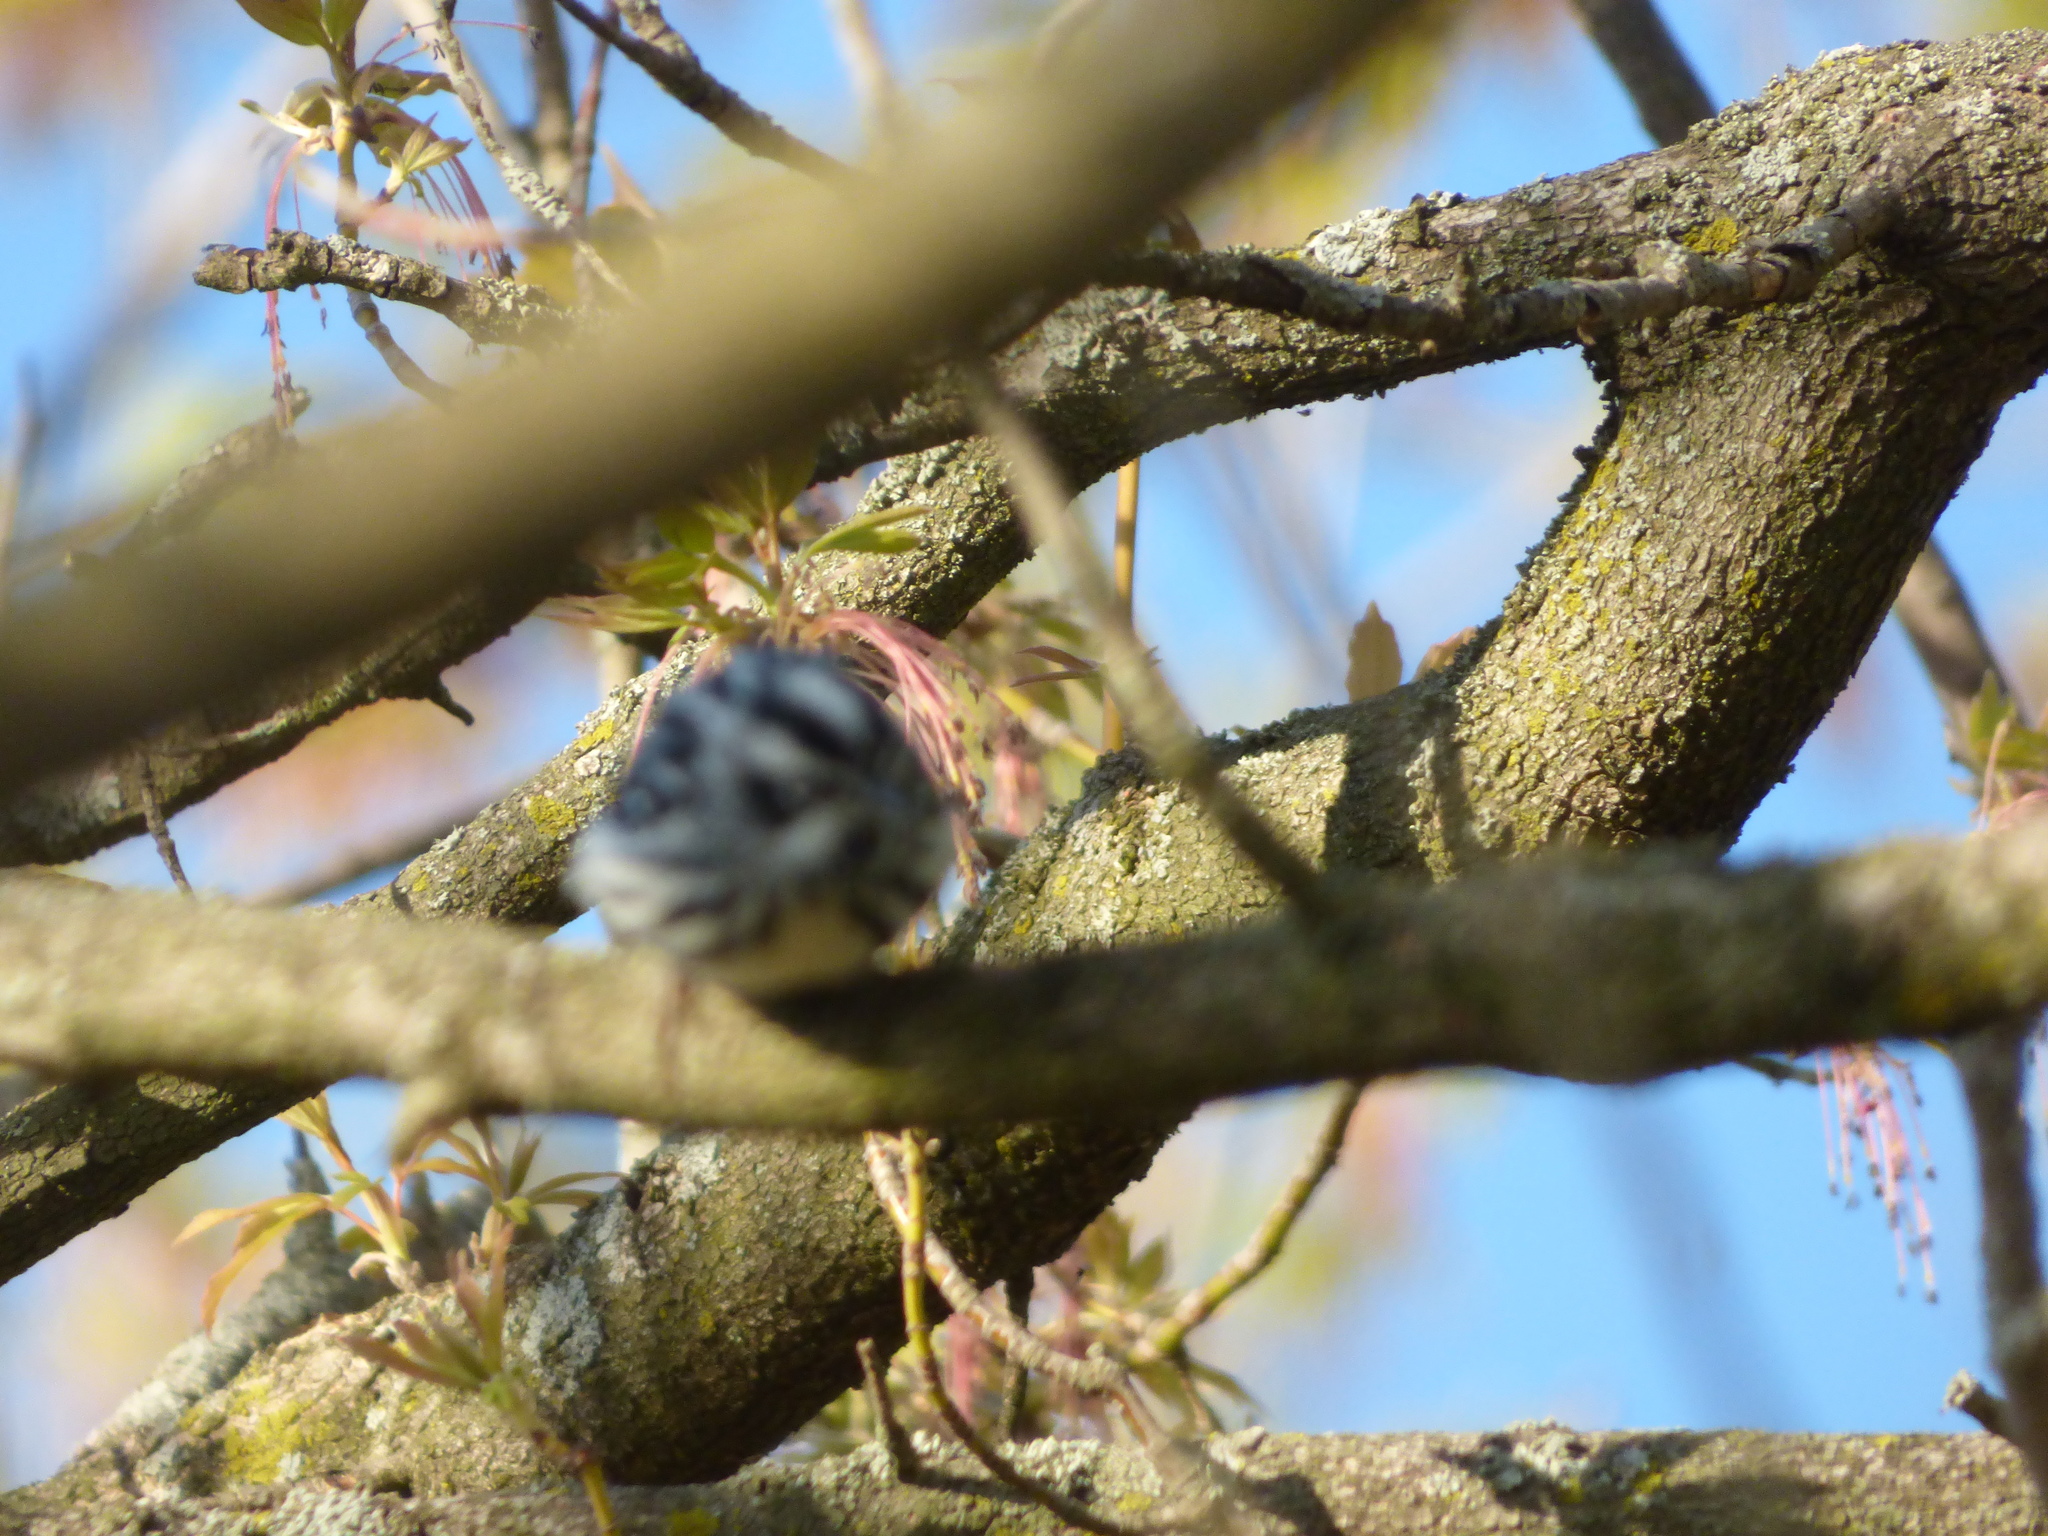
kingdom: Animalia
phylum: Chordata
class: Aves
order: Passeriformes
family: Parulidae
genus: Mniotilta
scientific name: Mniotilta varia
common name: Black-and-white warbler
